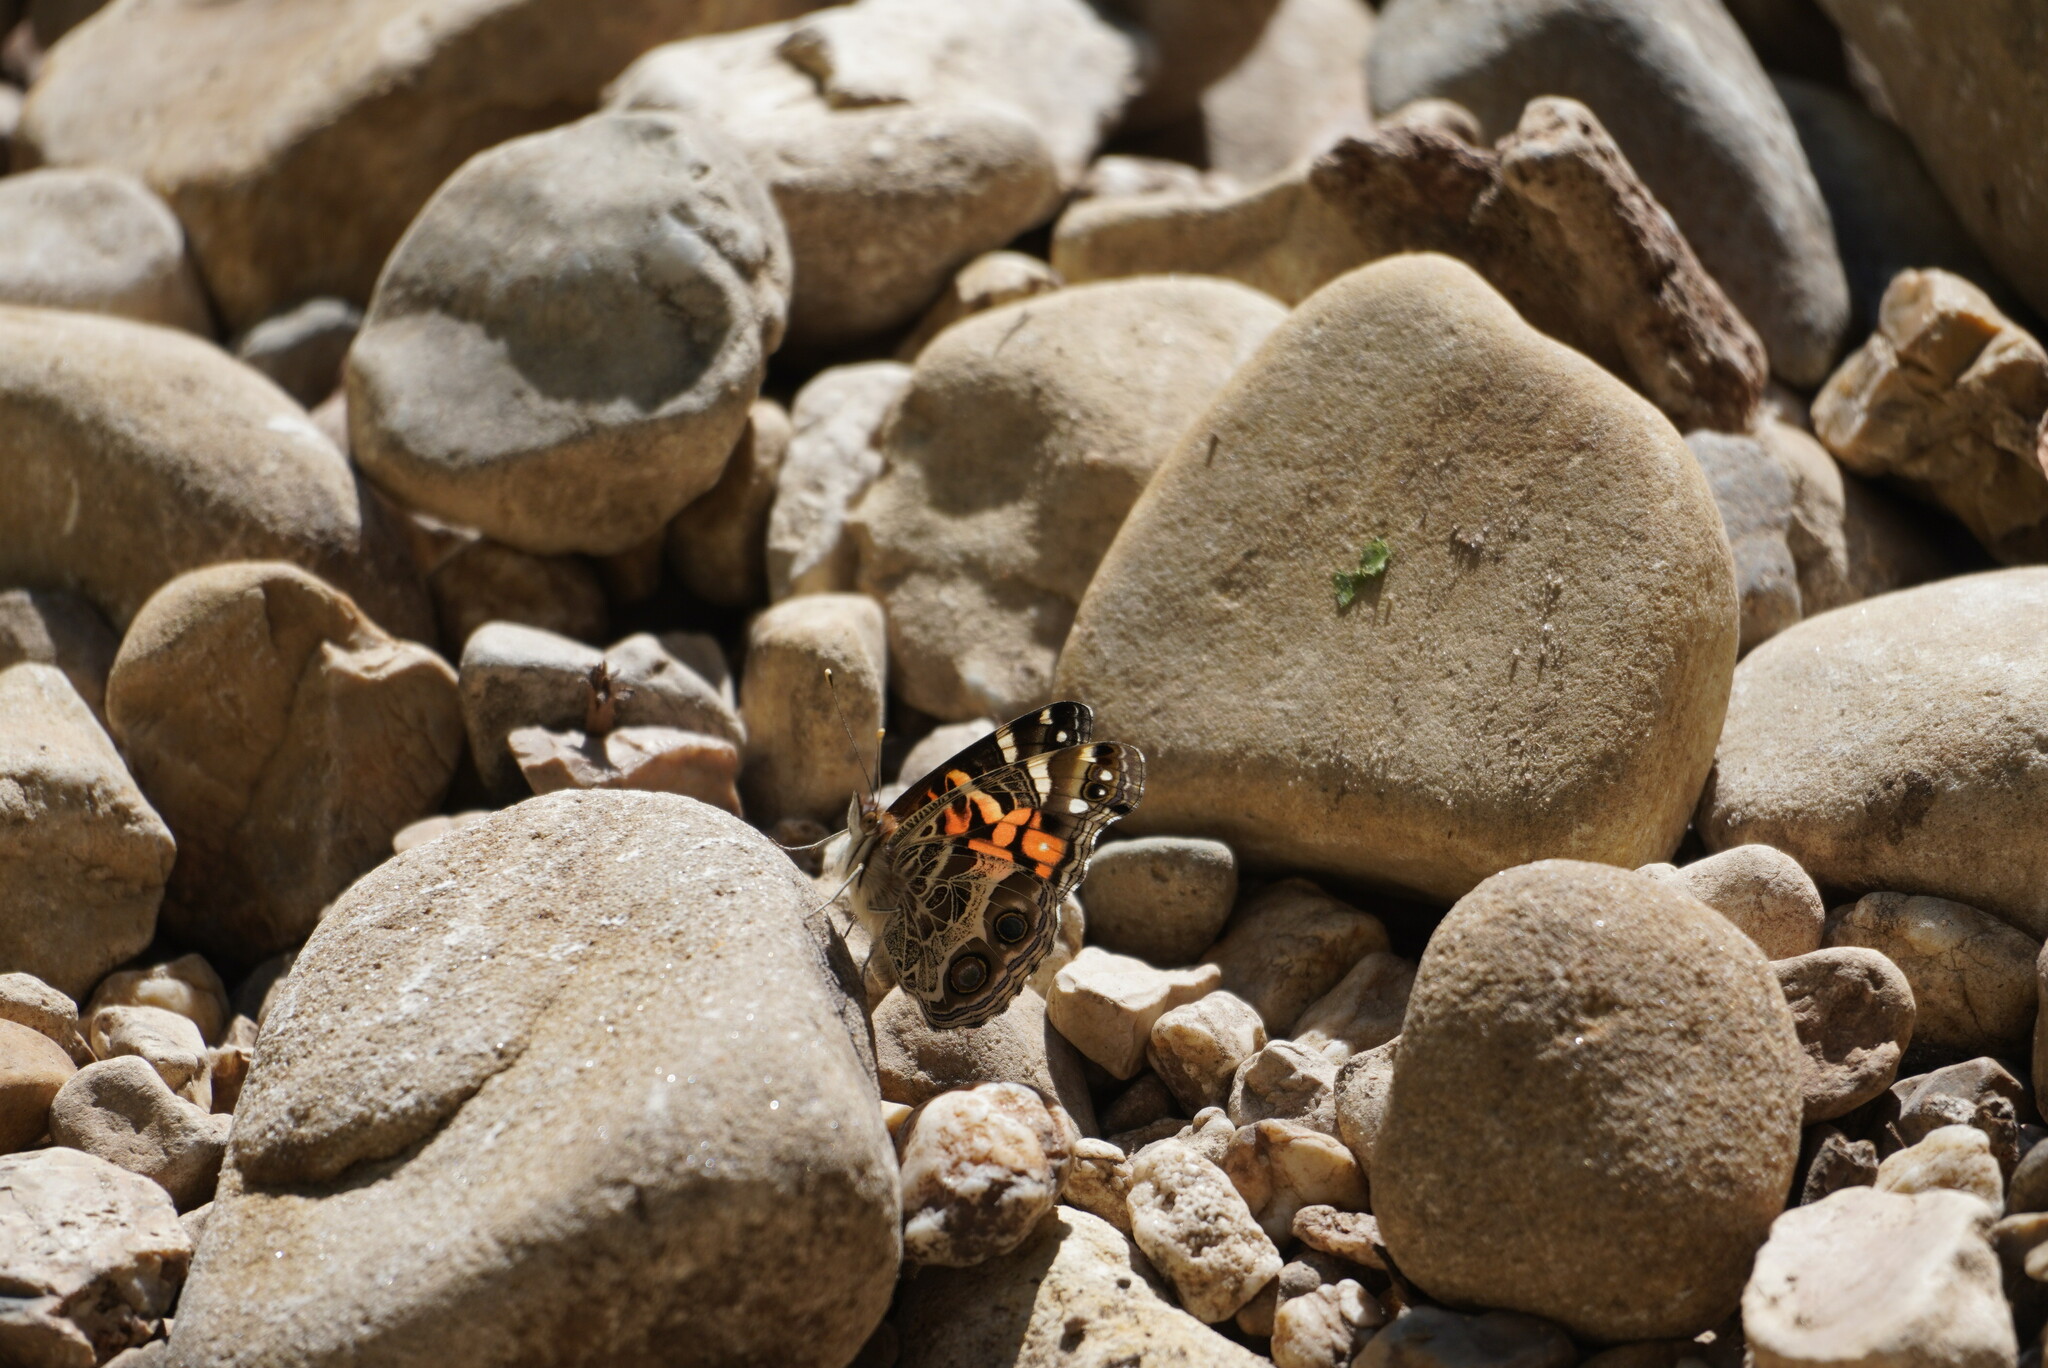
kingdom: Animalia
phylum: Arthropoda
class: Insecta
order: Lepidoptera
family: Nymphalidae
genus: Vanessa
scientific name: Vanessa virginiensis
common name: American lady
